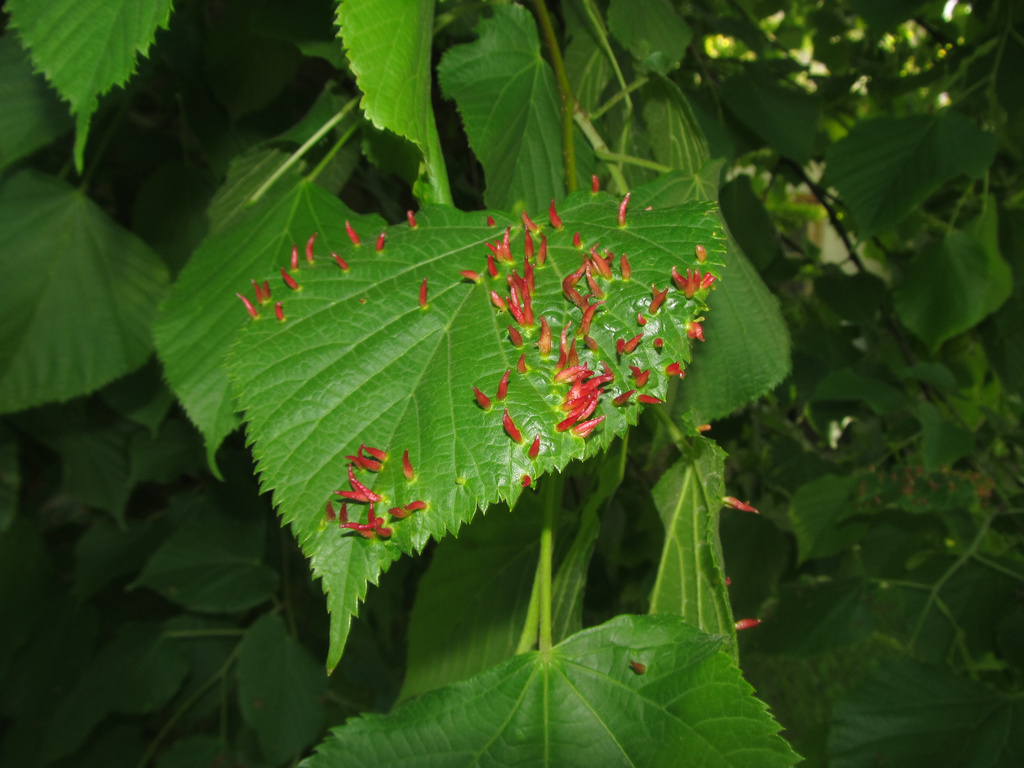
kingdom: Animalia
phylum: Arthropoda
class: Arachnida
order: Trombidiformes
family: Eriophyidae
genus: Eriophyes
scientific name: Eriophyes tiliae
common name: Red nail gall mite
